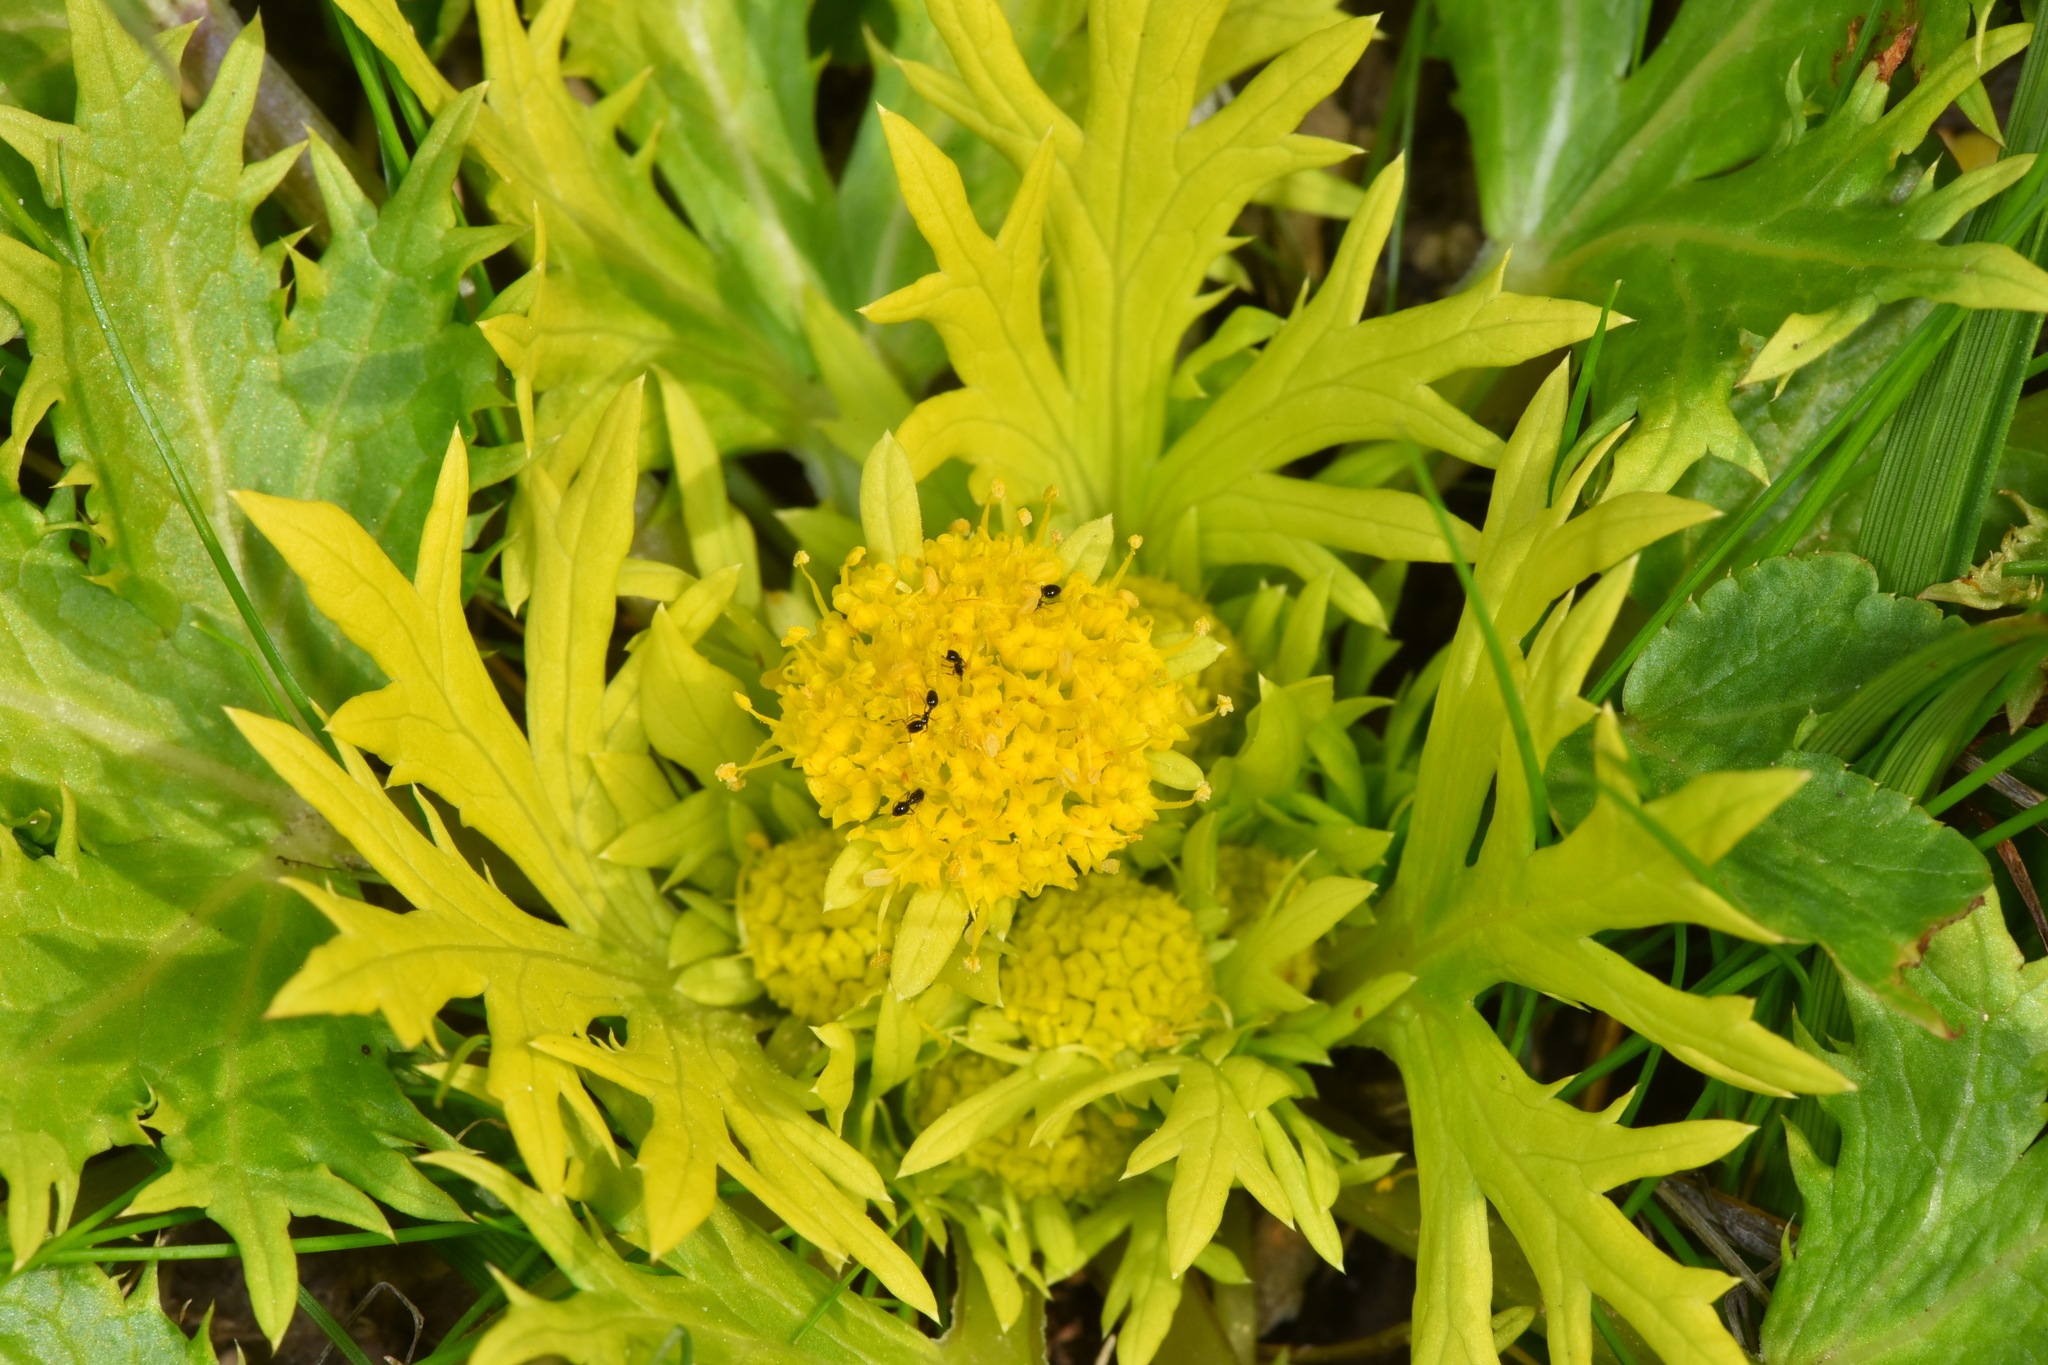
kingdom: Plantae
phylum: Tracheophyta
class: Magnoliopsida
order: Apiales
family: Apiaceae
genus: Sanicula
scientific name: Sanicula arctopoides
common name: Footsteps-of-spring
